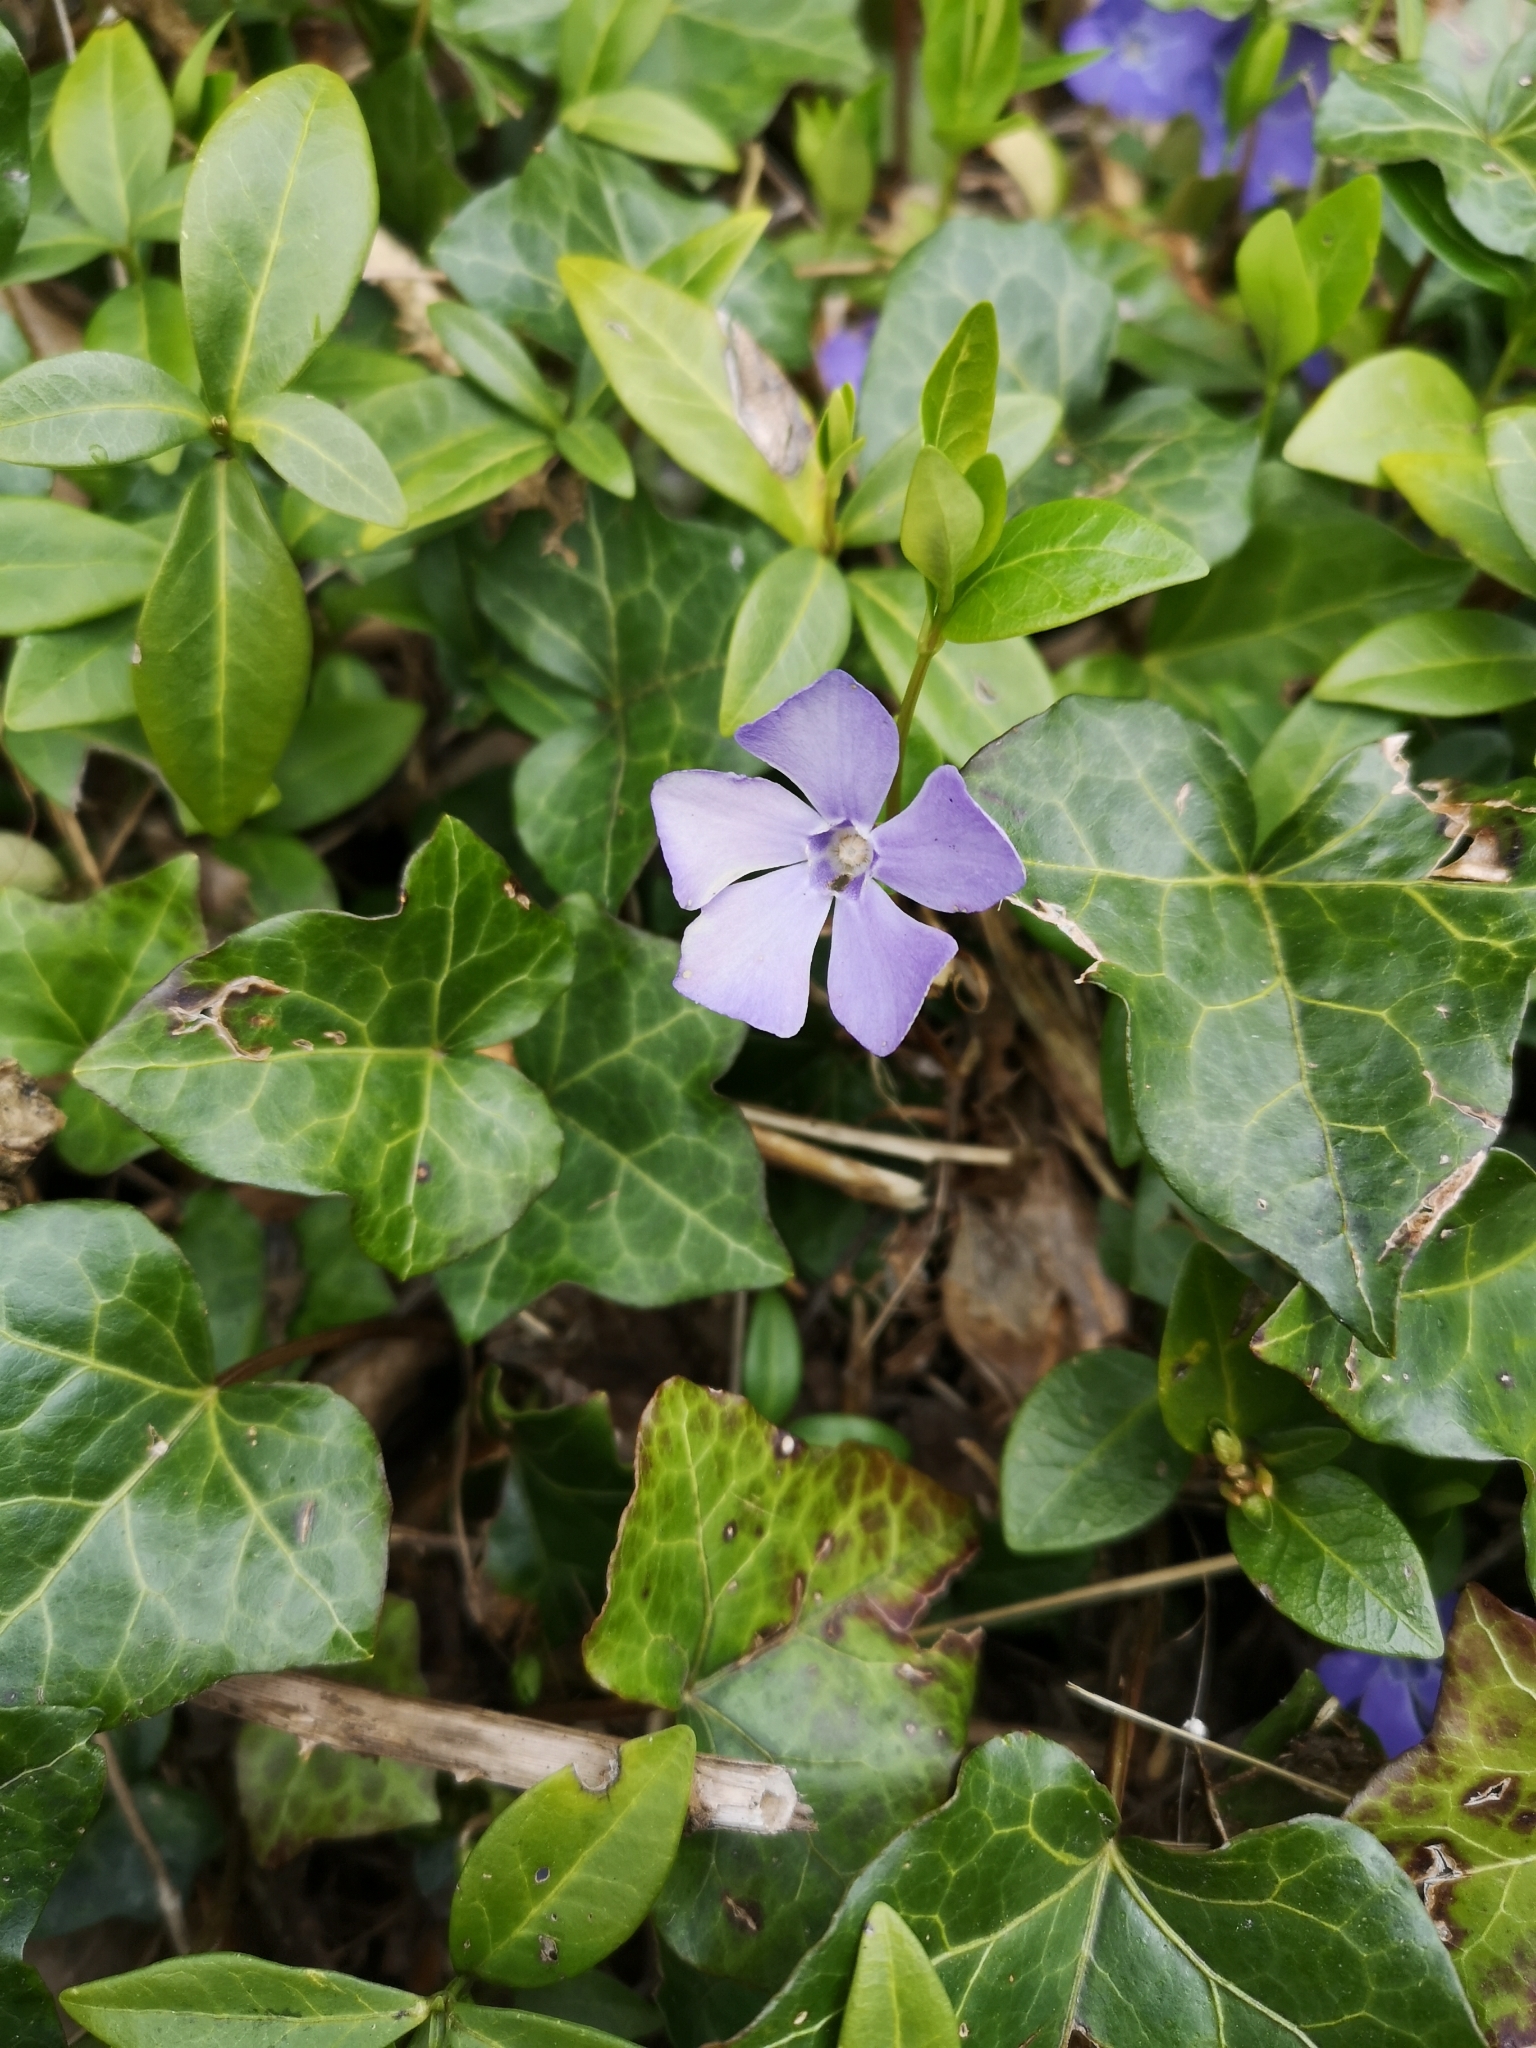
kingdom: Plantae
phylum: Tracheophyta
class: Magnoliopsida
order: Gentianales
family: Apocynaceae
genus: Vinca
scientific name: Vinca minor
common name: Lesser periwinkle
